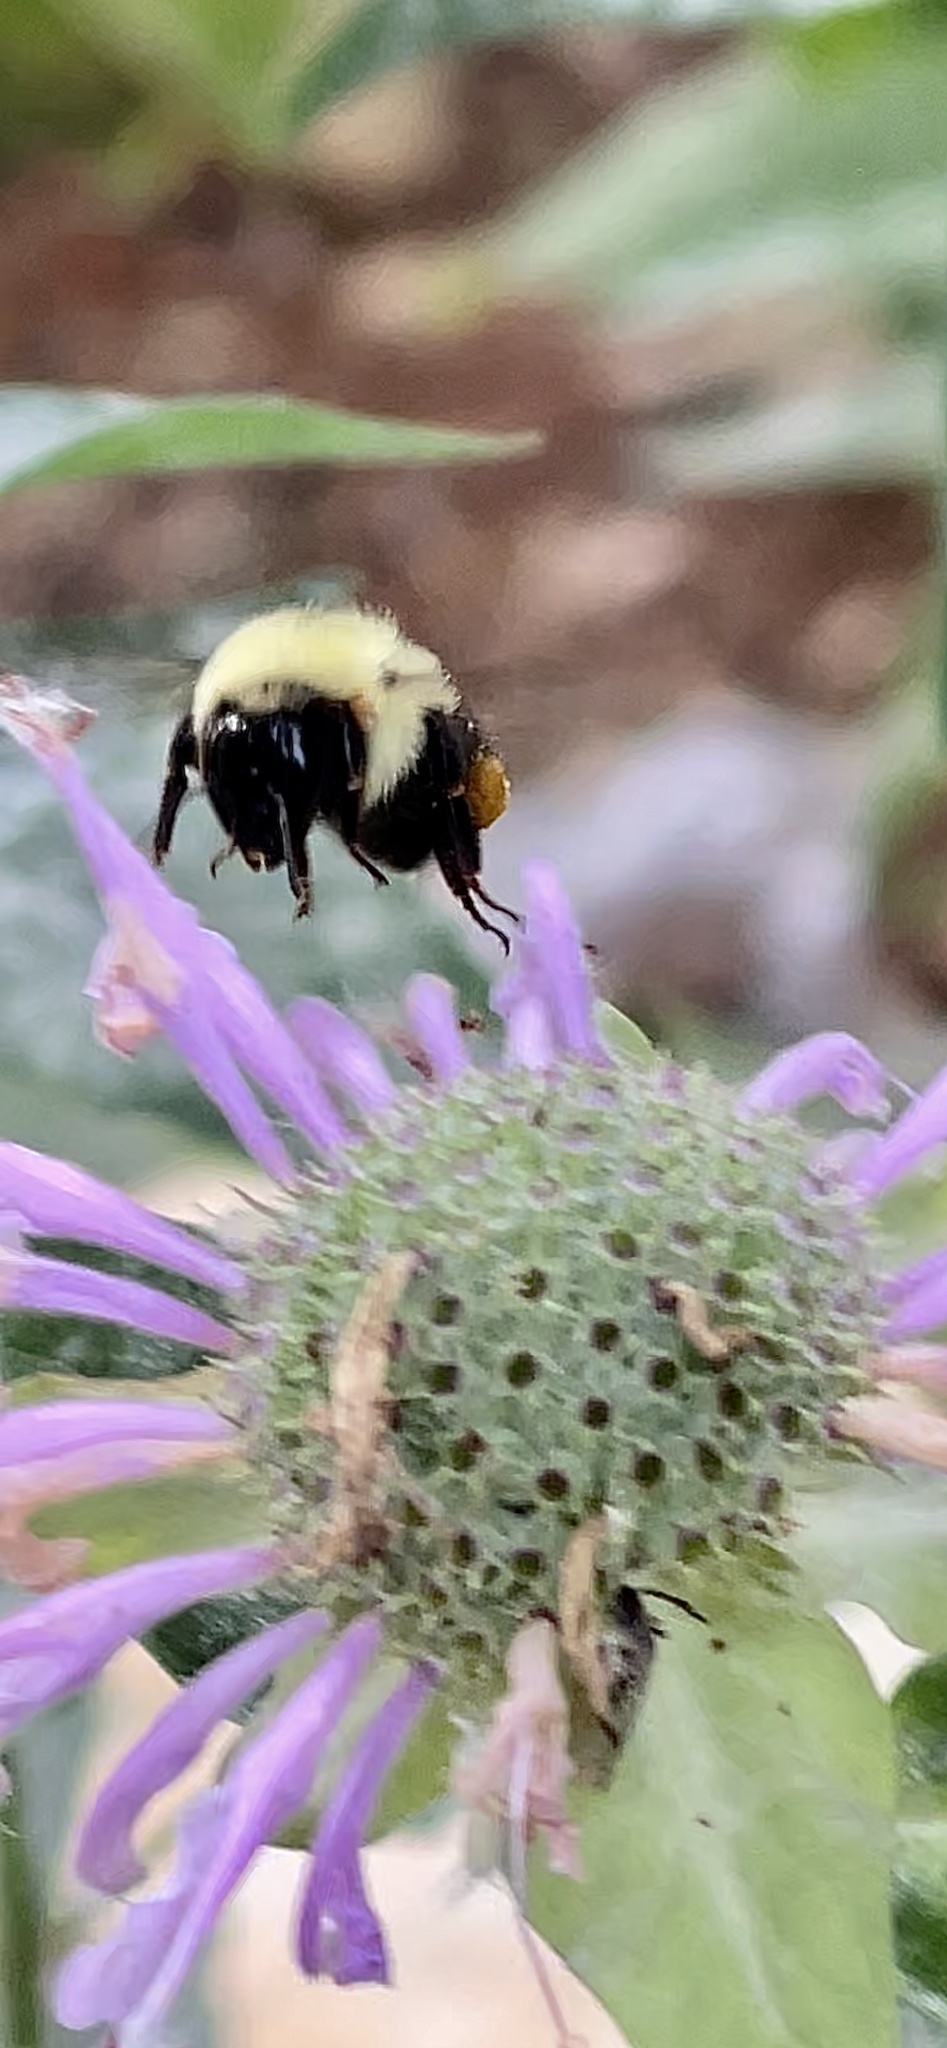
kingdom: Animalia
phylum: Arthropoda
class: Insecta
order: Hymenoptera
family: Apidae
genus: Bombus
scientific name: Bombus bimaculatus
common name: Two-spotted bumble bee
